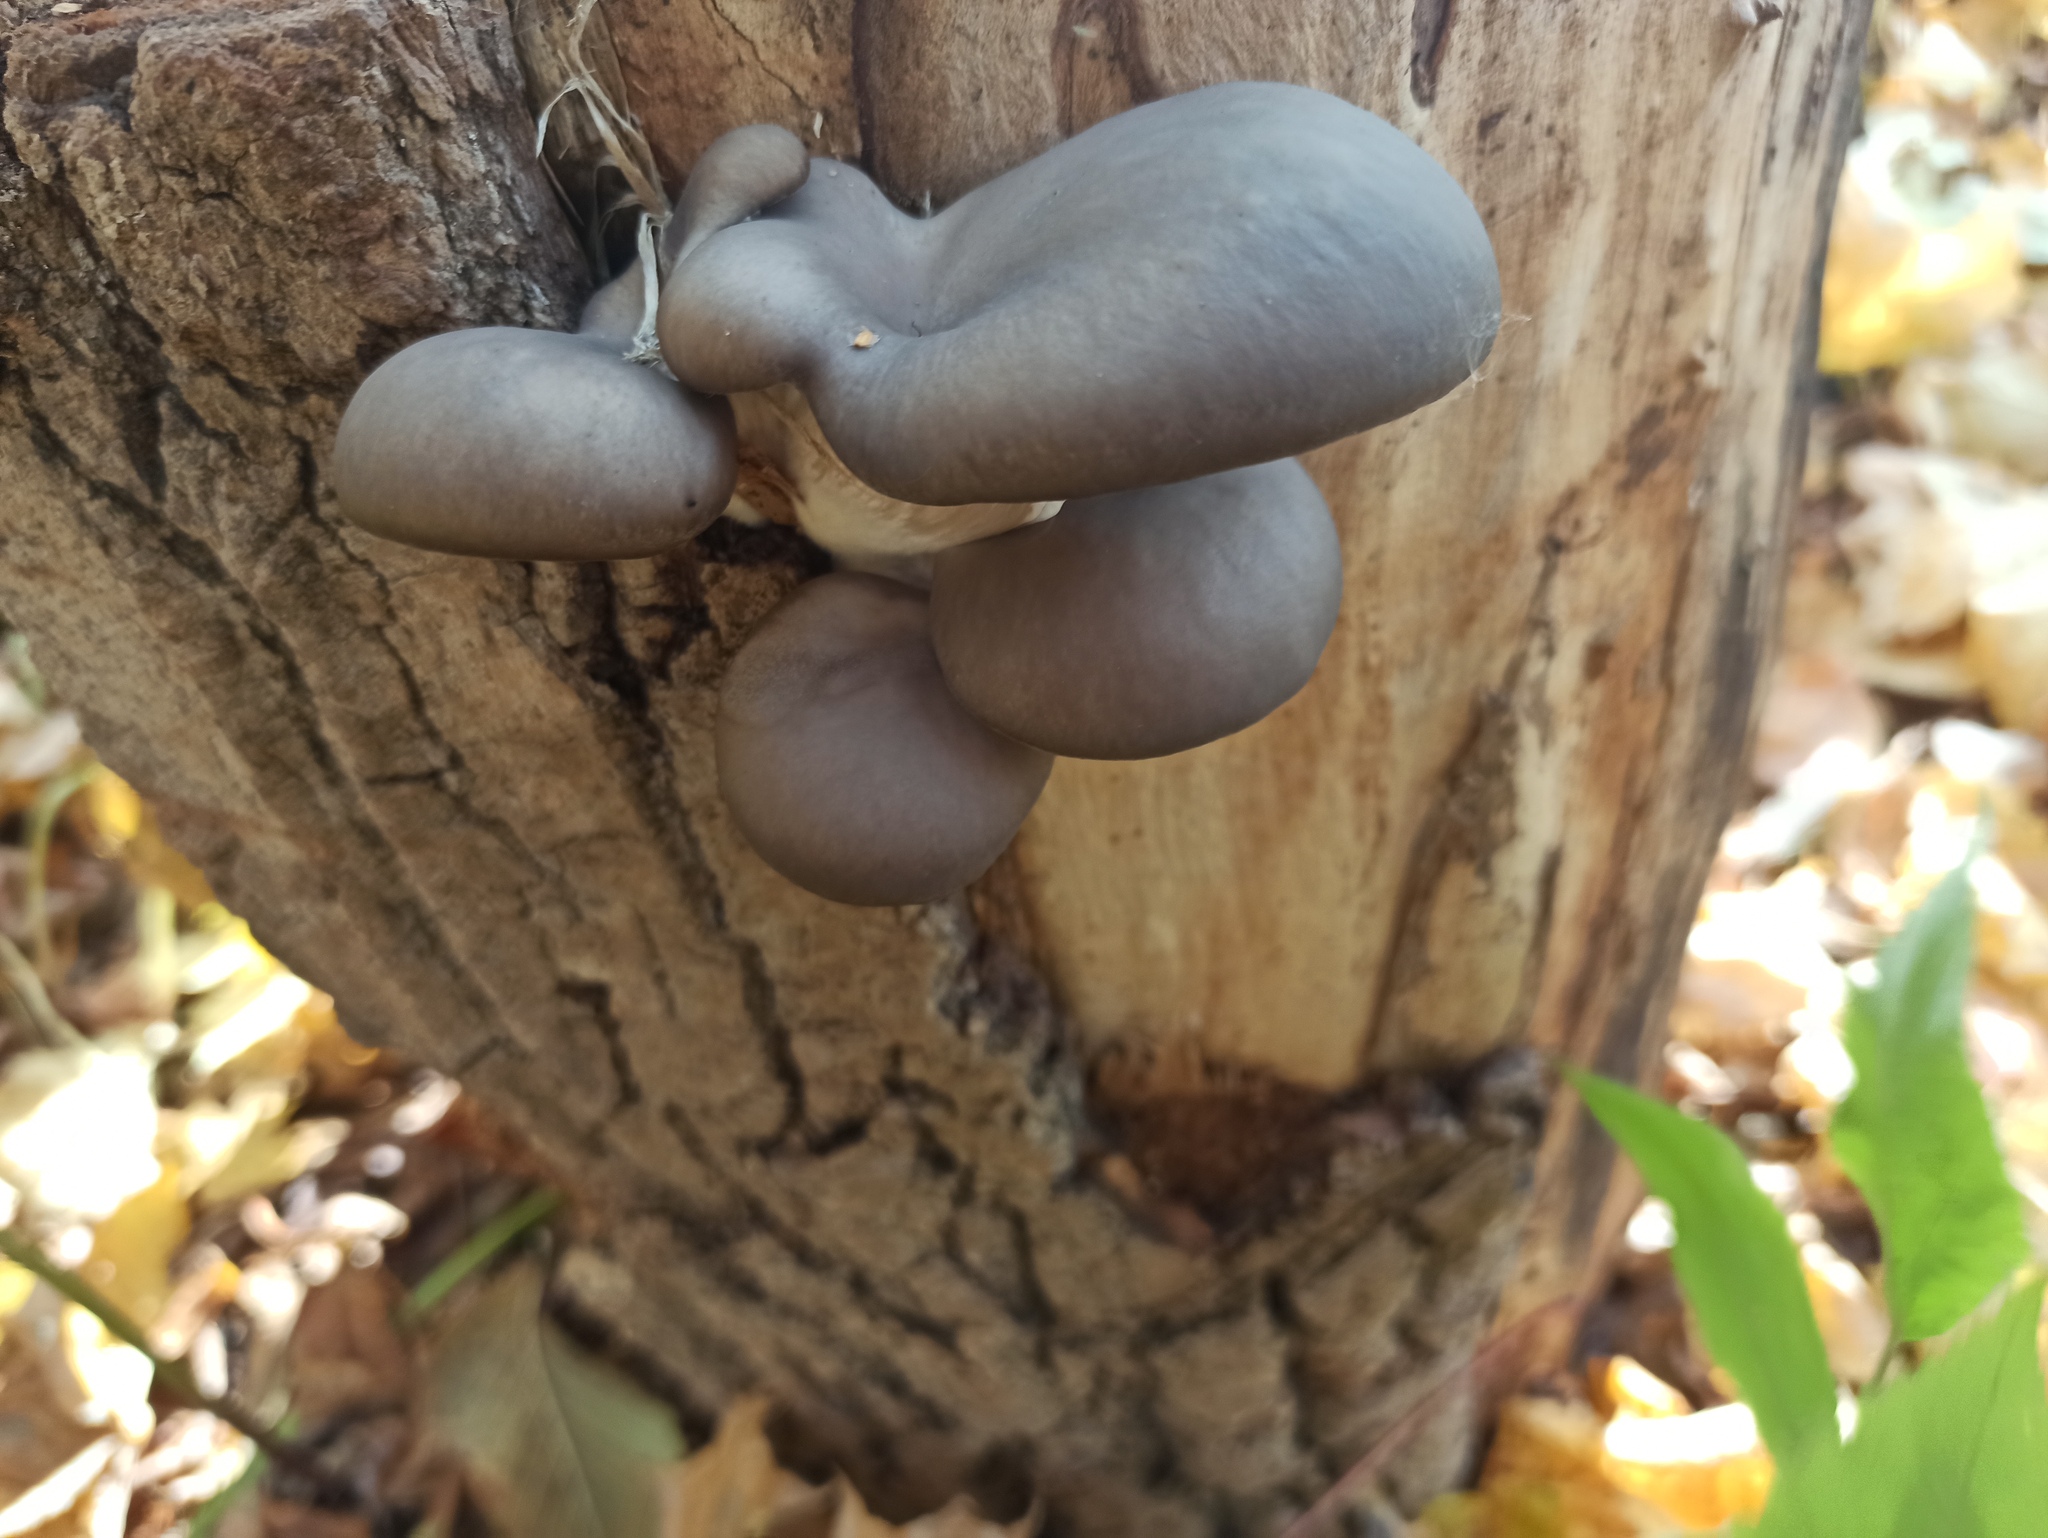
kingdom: Fungi
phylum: Basidiomycota
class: Agaricomycetes
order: Agaricales
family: Pleurotaceae
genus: Pleurotus
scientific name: Pleurotus ostreatus
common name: Oyster mushroom
